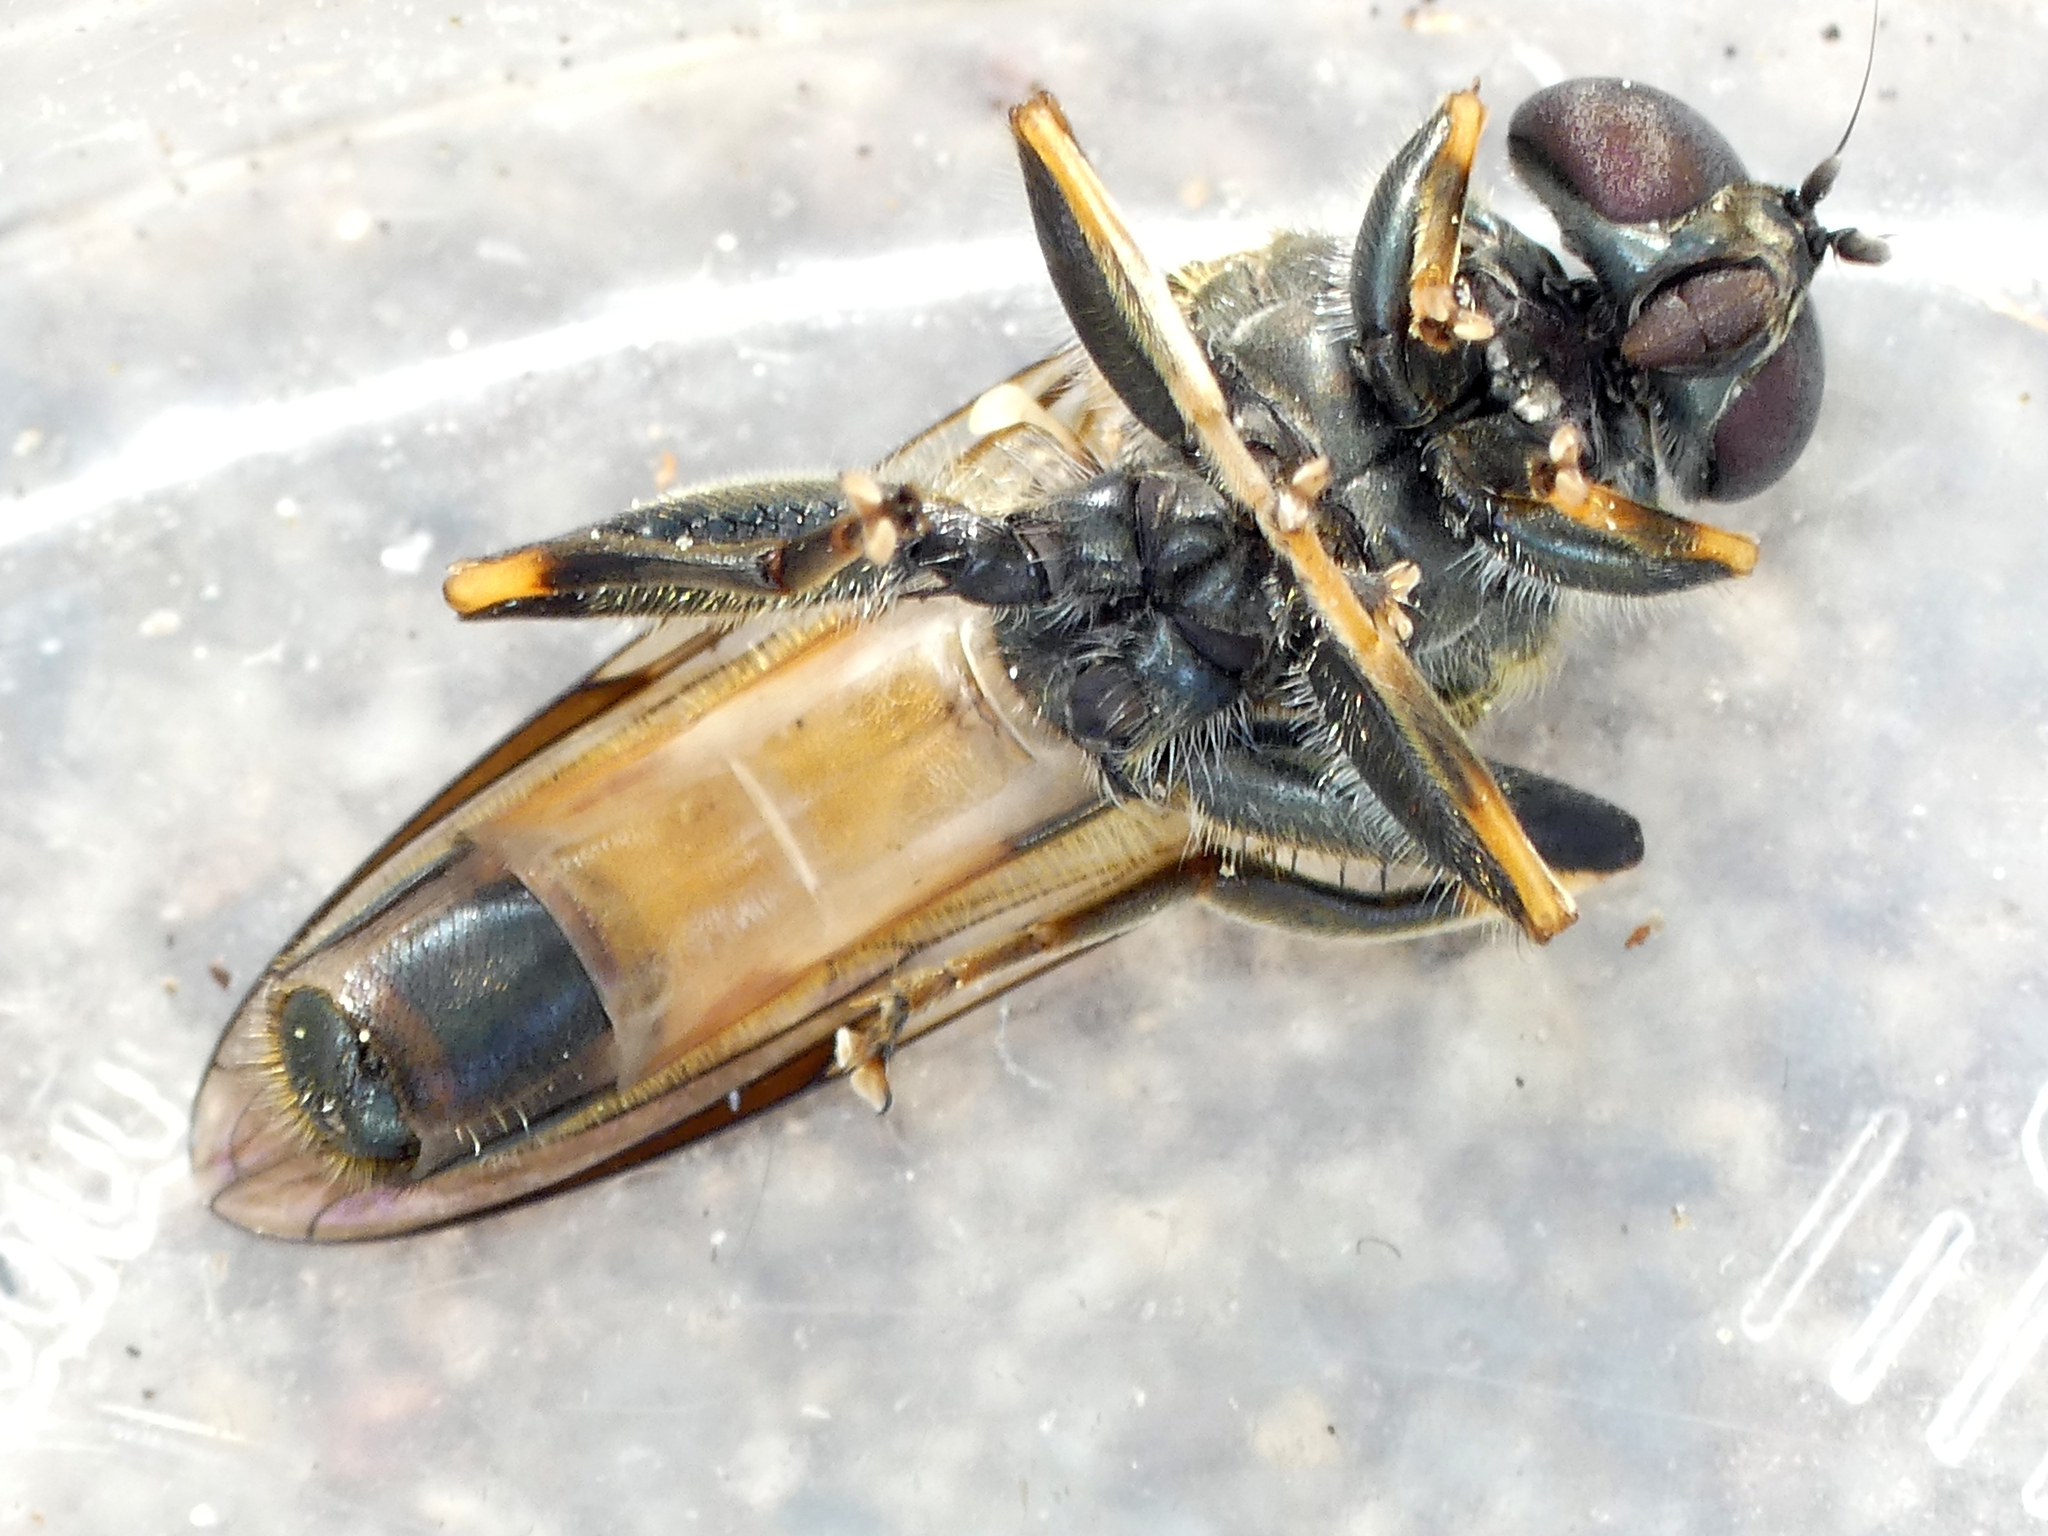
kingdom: Animalia
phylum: Arthropoda
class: Insecta
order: Diptera
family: Syrphidae
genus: Xylota
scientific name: Xylota segnis
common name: Brown-toed forest fly
